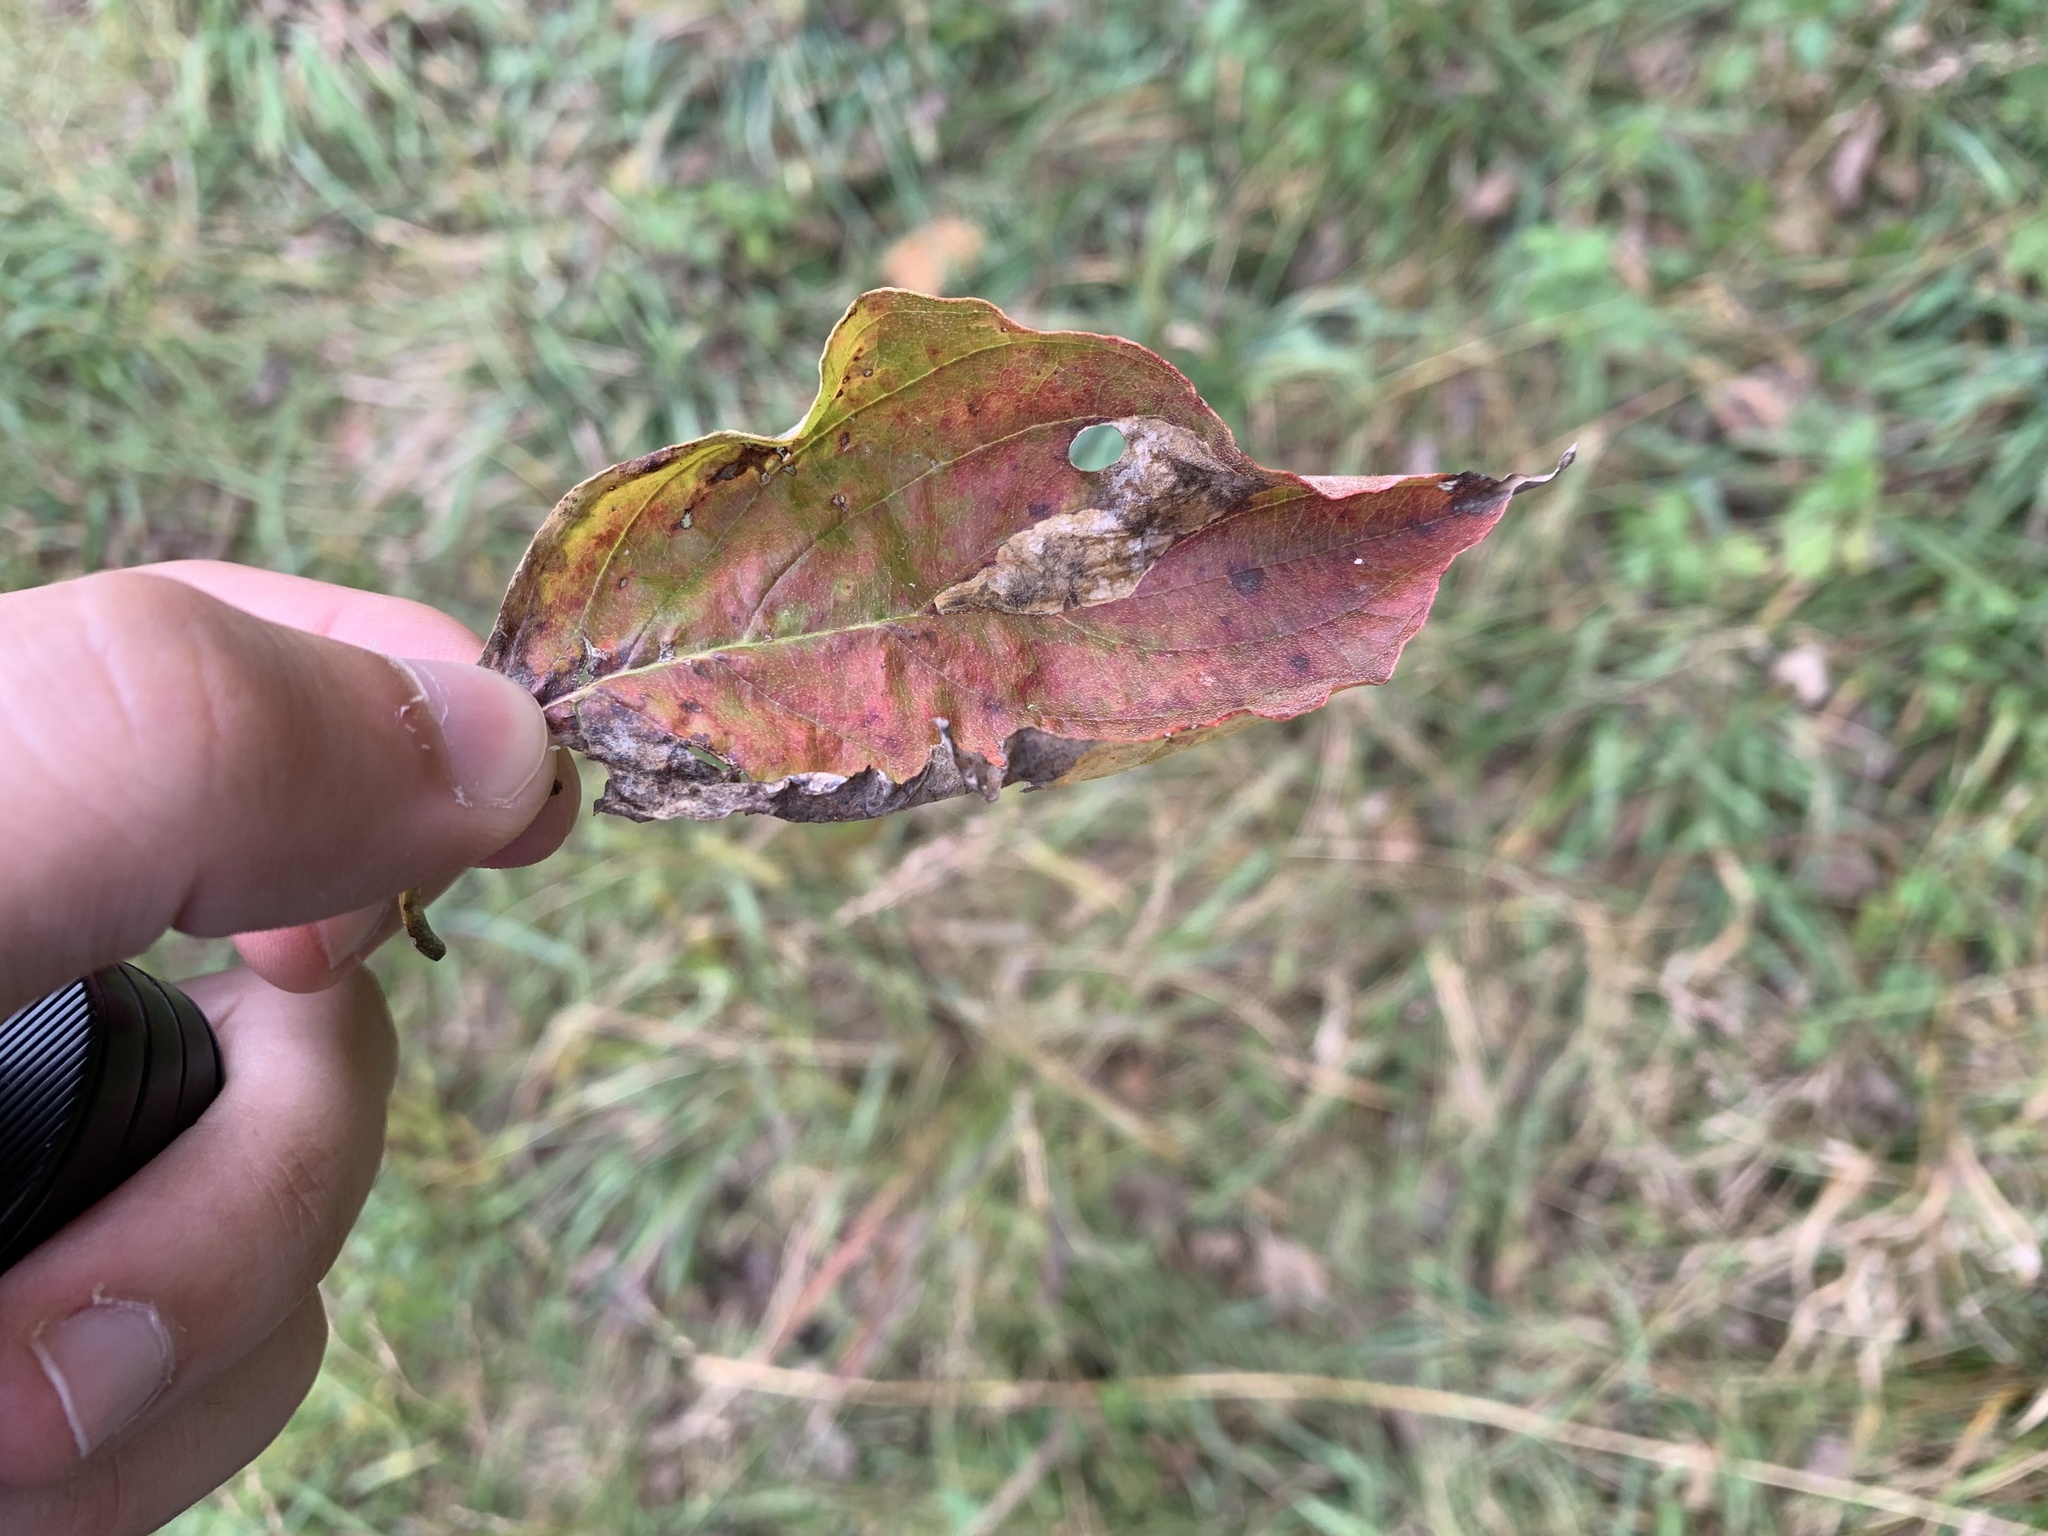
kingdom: Animalia
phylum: Arthropoda
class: Insecta
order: Lepidoptera
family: Heliozelidae
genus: Antispila
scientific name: Antispila cornifoliella
